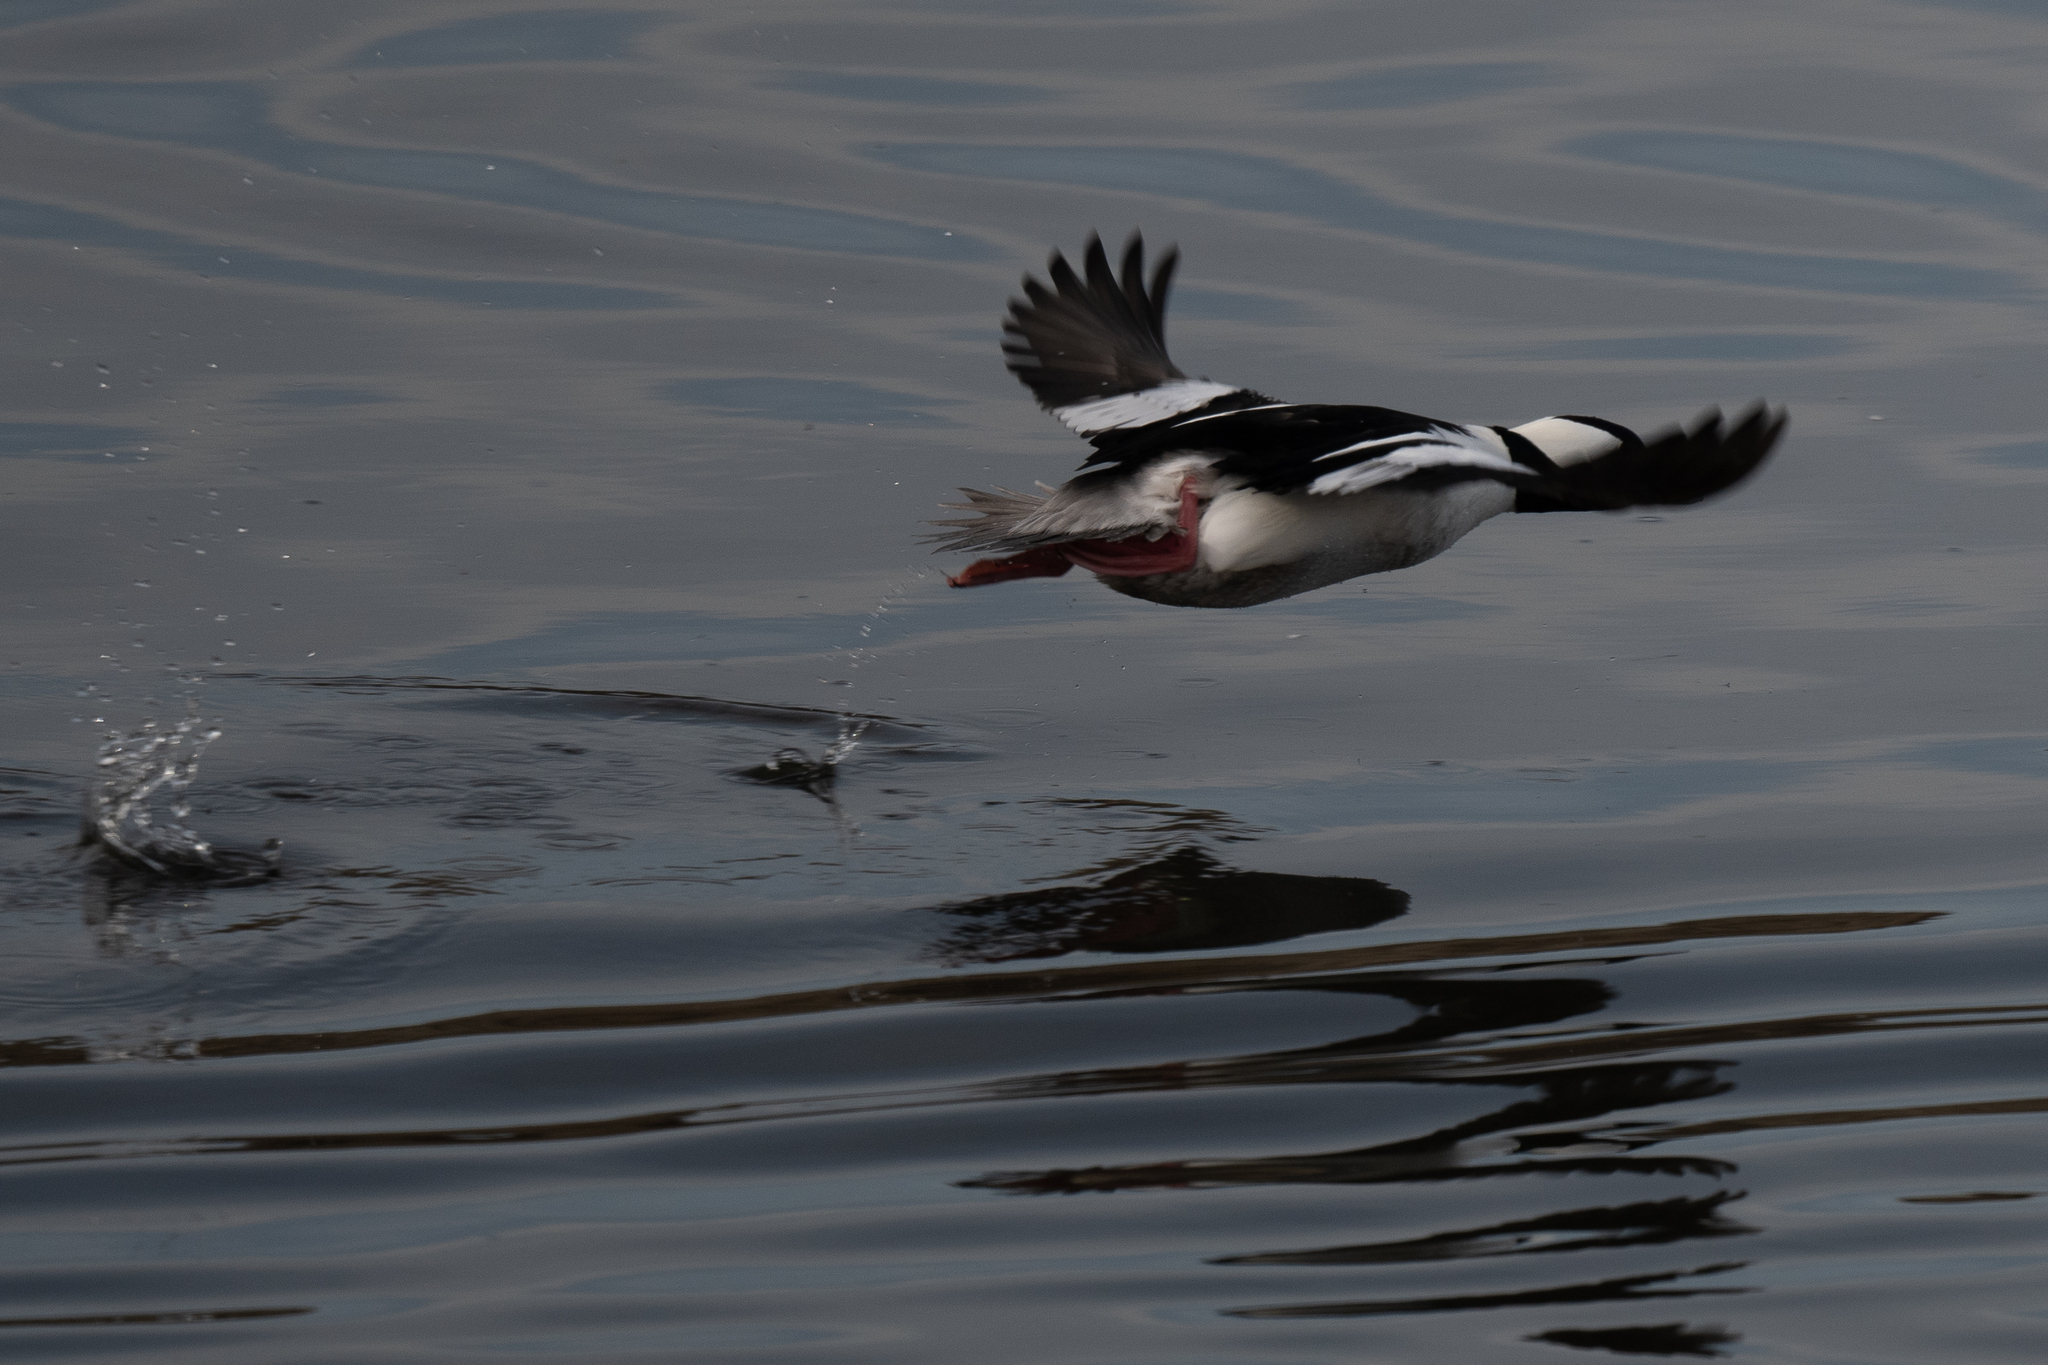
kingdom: Animalia
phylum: Chordata
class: Aves
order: Anseriformes
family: Anatidae
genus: Bucephala
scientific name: Bucephala albeola
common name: Bufflehead
